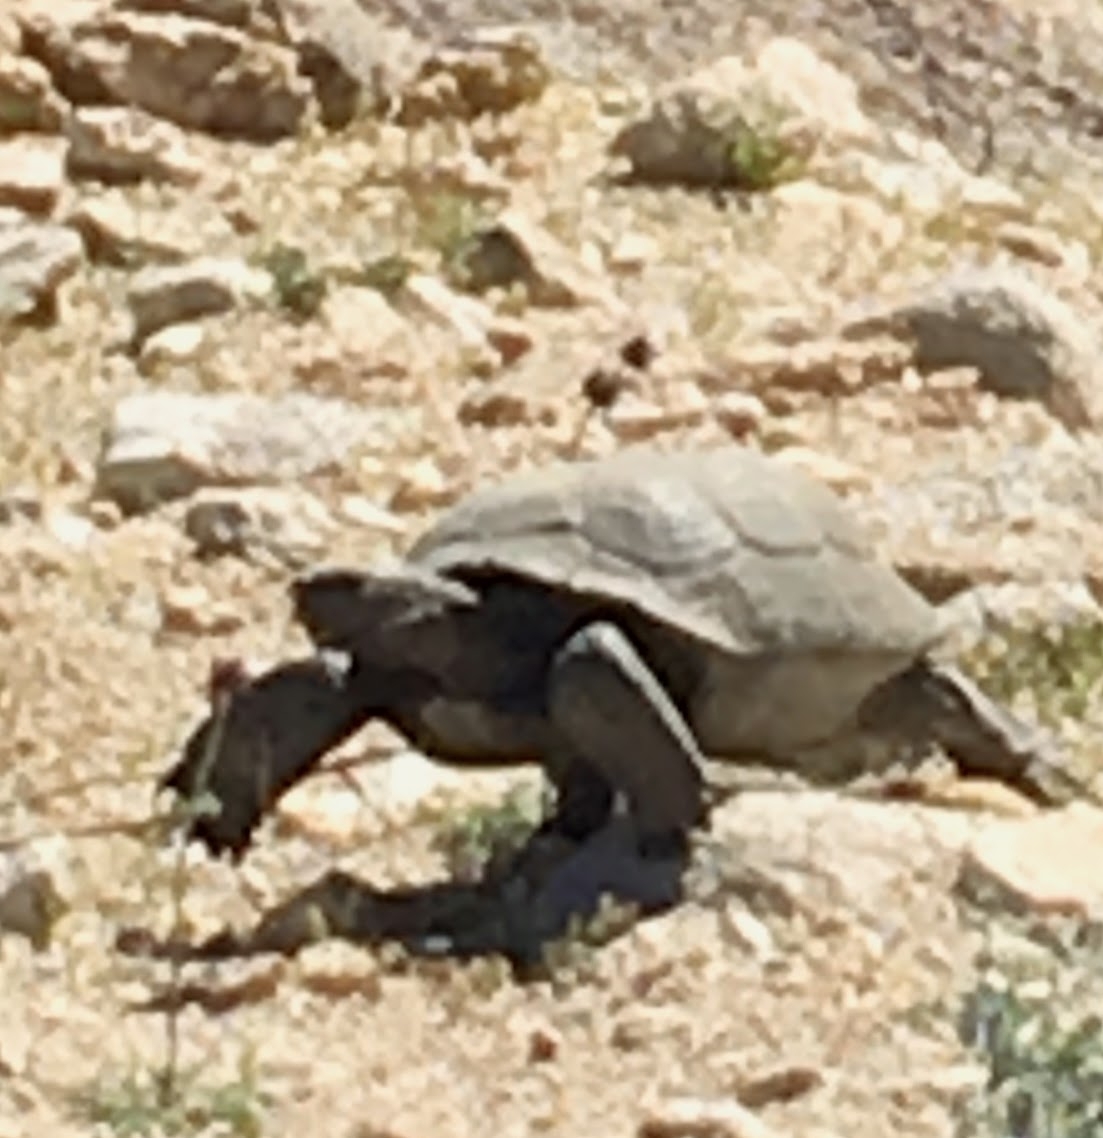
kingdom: Animalia
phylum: Chordata
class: Testudines
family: Testudinidae
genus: Gopherus
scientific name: Gopherus agassizii
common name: Mojave desert tortoise
